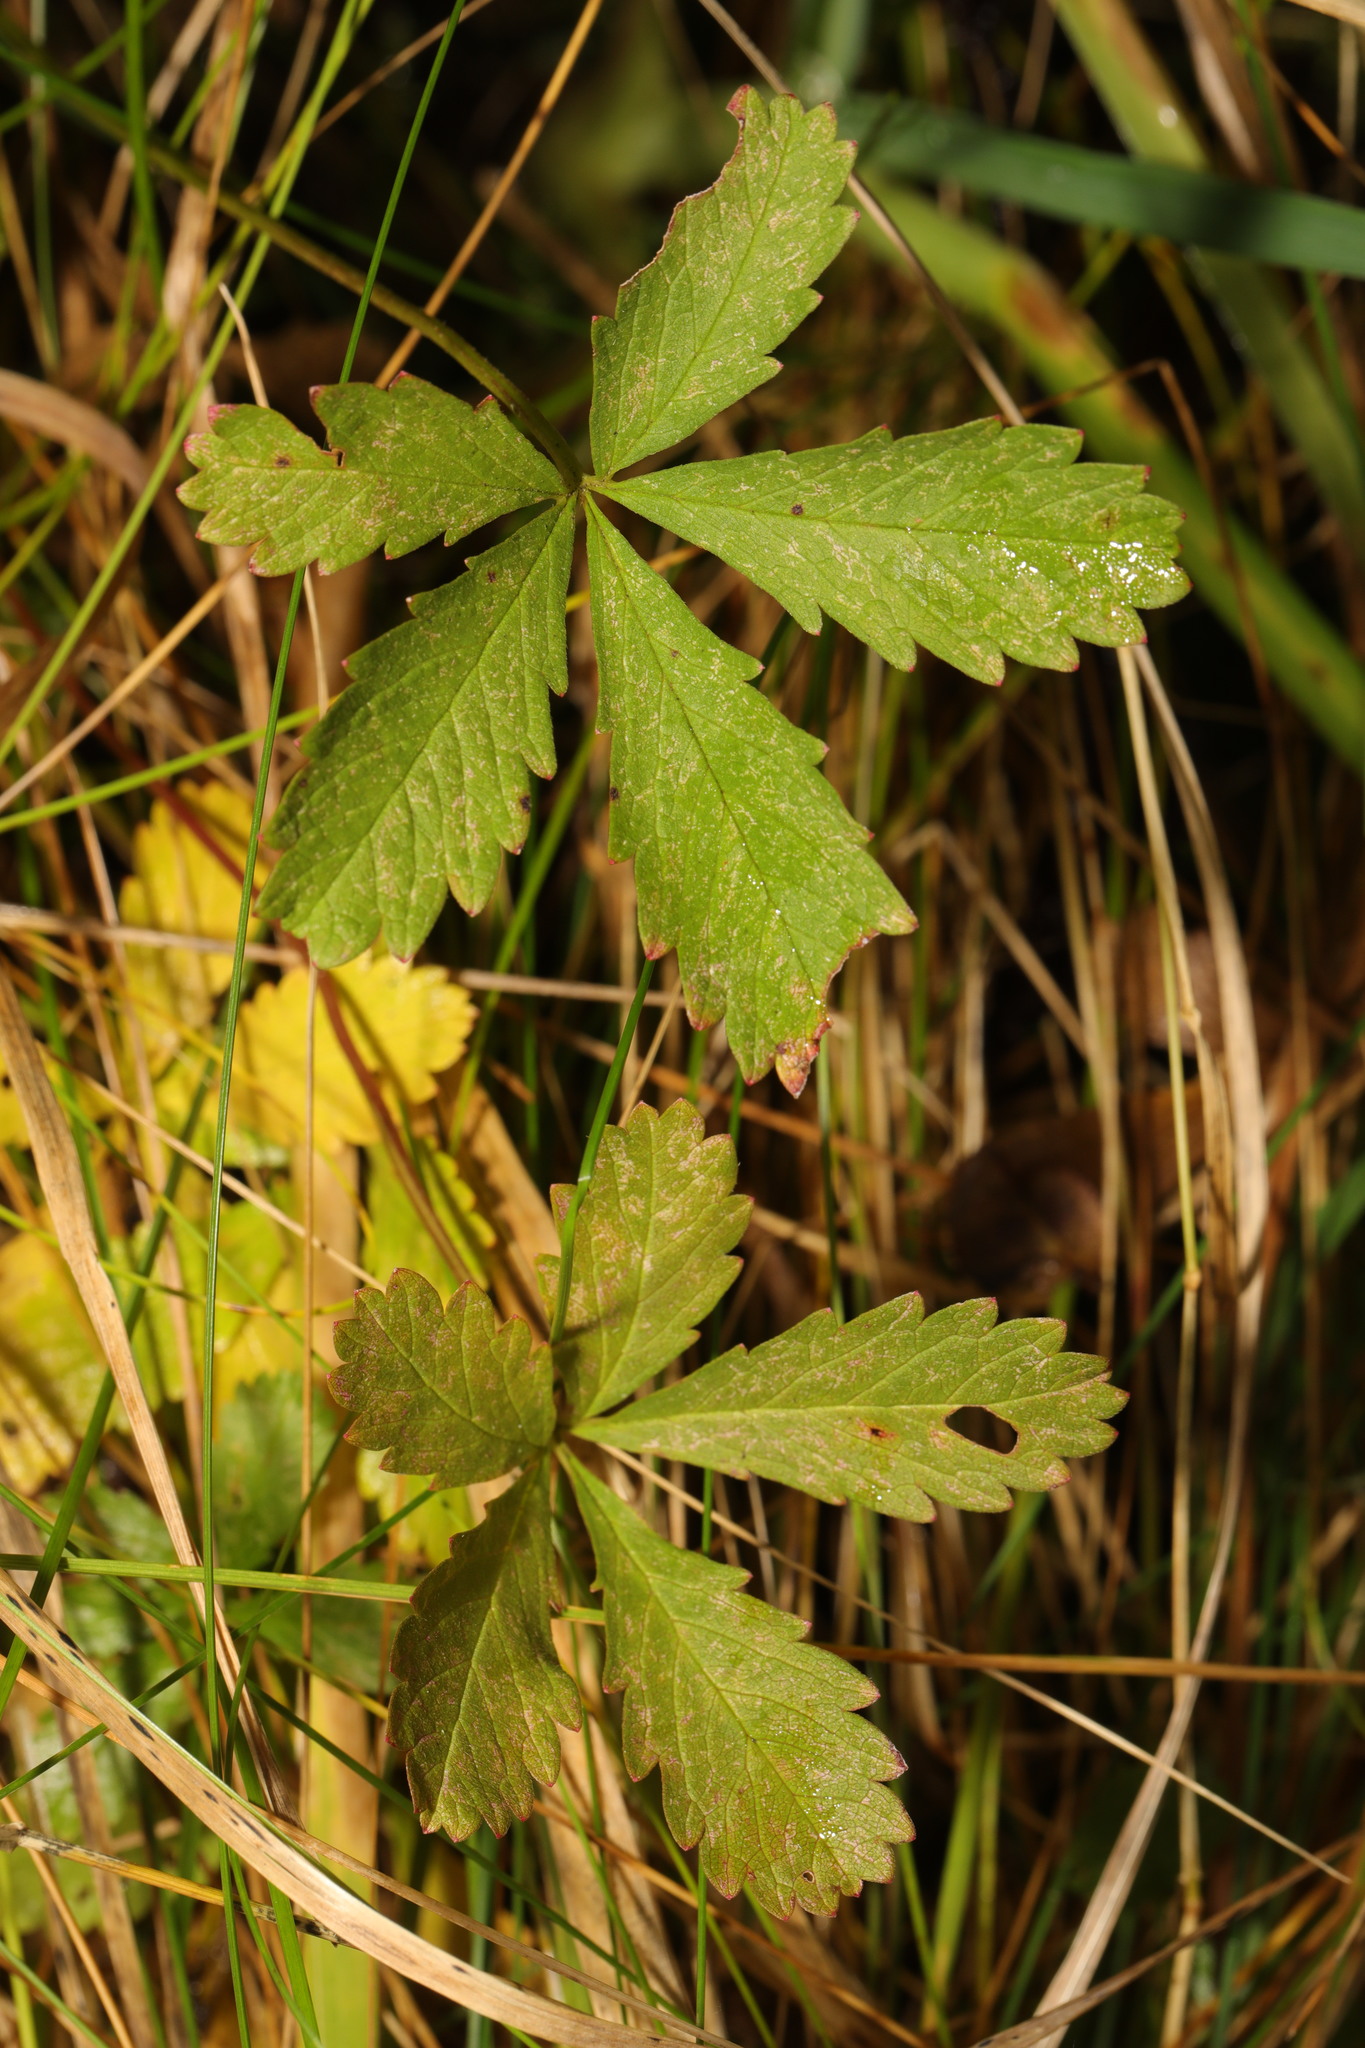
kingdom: Plantae
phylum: Tracheophyta
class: Magnoliopsida
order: Rosales
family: Rosaceae
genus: Potentilla
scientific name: Potentilla reptans
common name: Creeping cinquefoil
